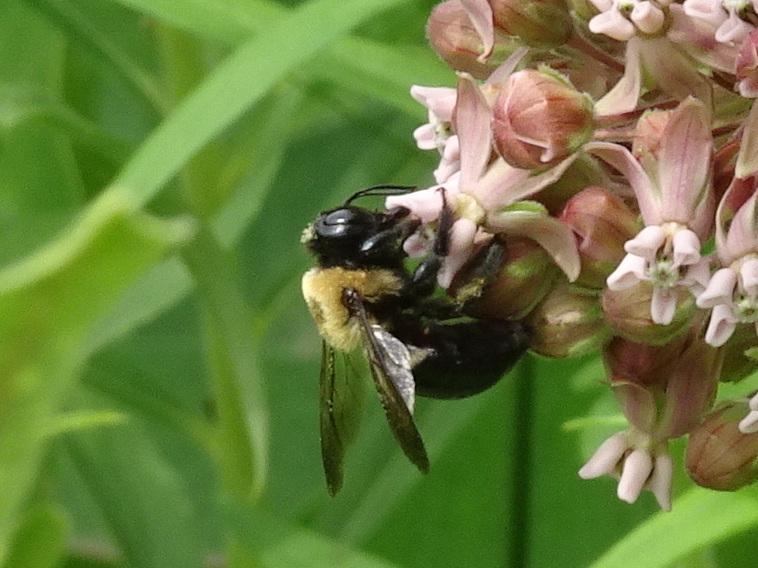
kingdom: Animalia
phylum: Arthropoda
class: Insecta
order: Hymenoptera
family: Apidae
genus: Xylocopa
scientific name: Xylocopa virginica
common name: Carpenter bee
